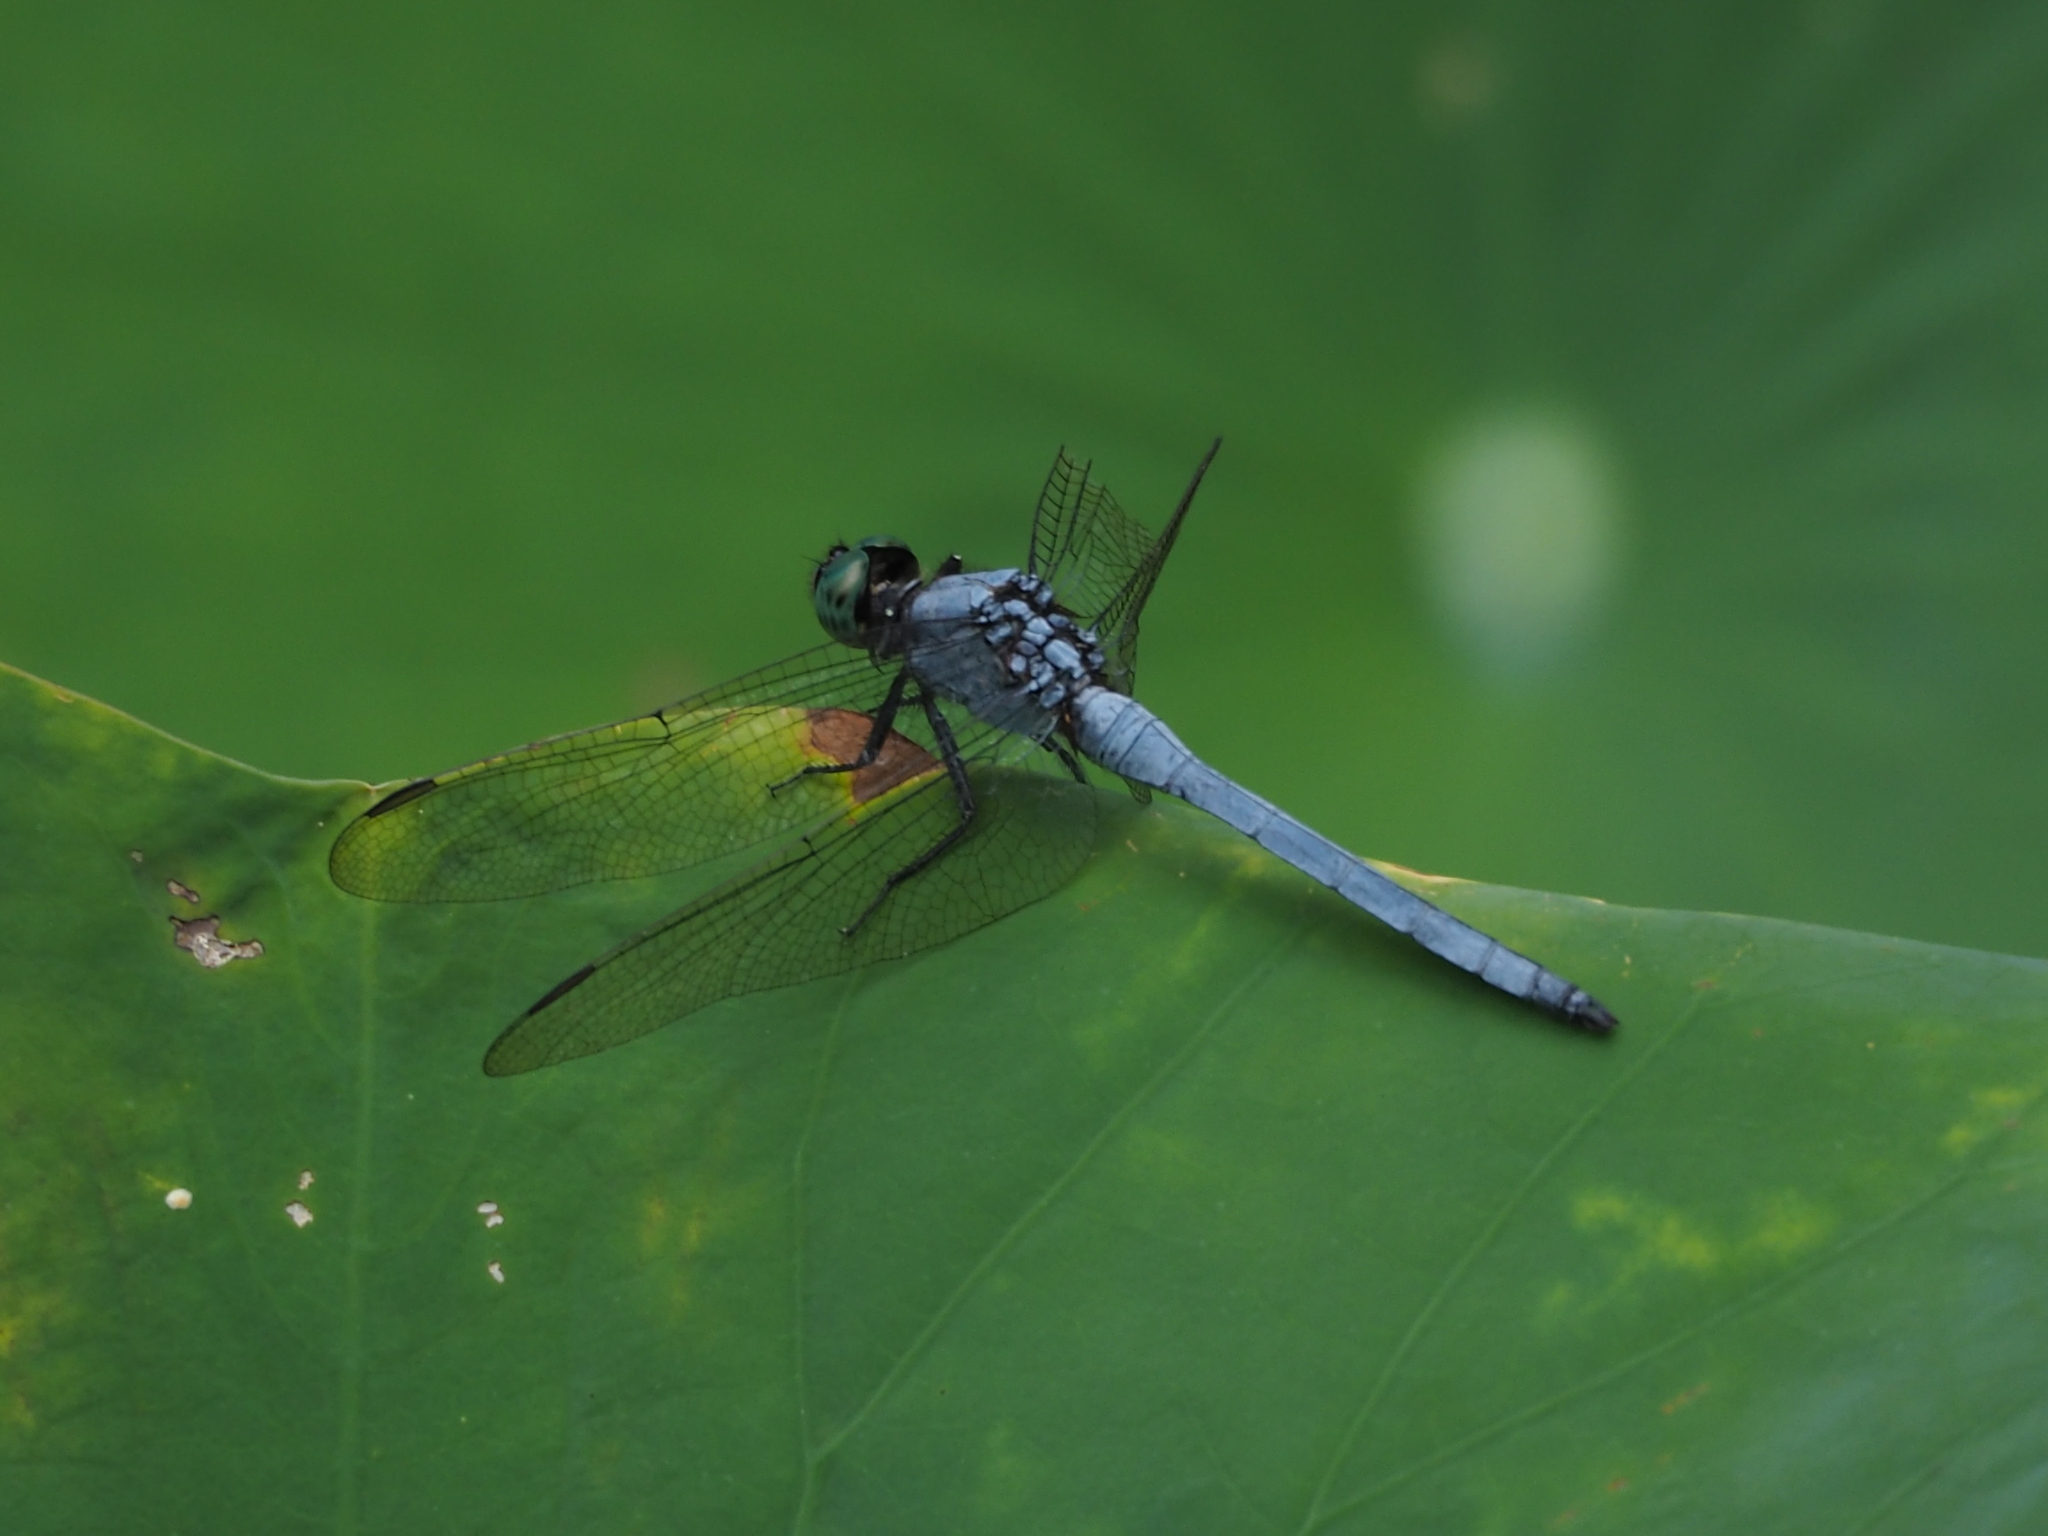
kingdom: Animalia
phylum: Arthropoda
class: Insecta
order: Odonata
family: Libellulidae
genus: Orthetrum
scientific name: Orthetrum luzonicum
